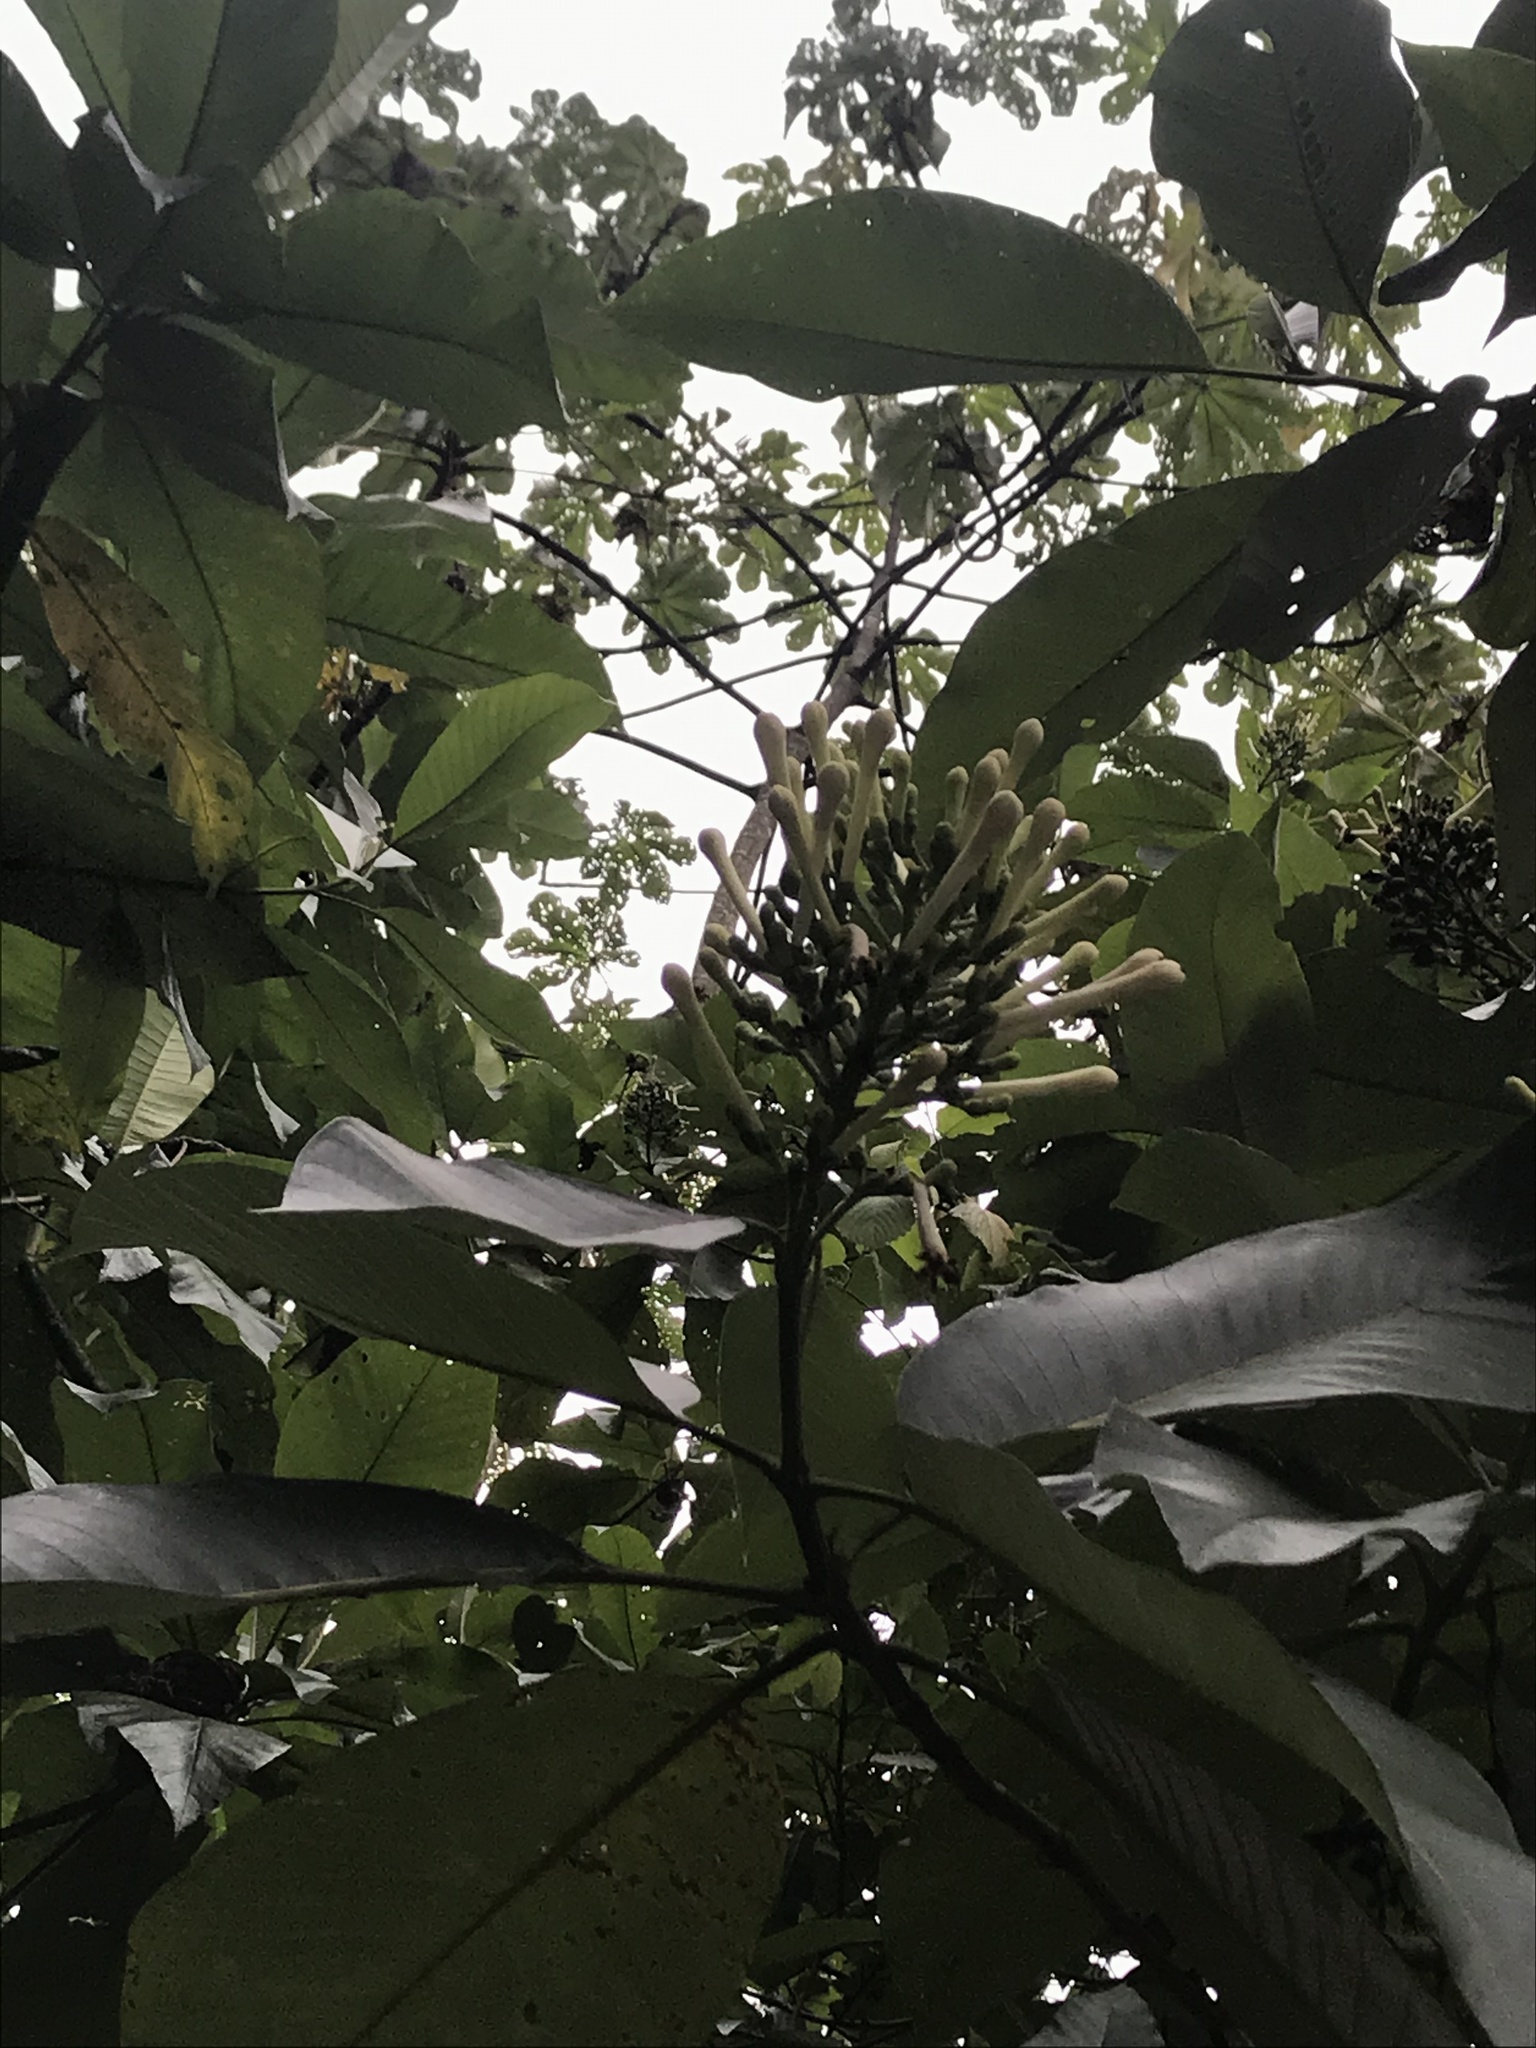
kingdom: Plantae
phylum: Tracheophyta
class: Magnoliopsida
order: Gentianales
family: Rubiaceae
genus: Isertia
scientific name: Isertia laevis
